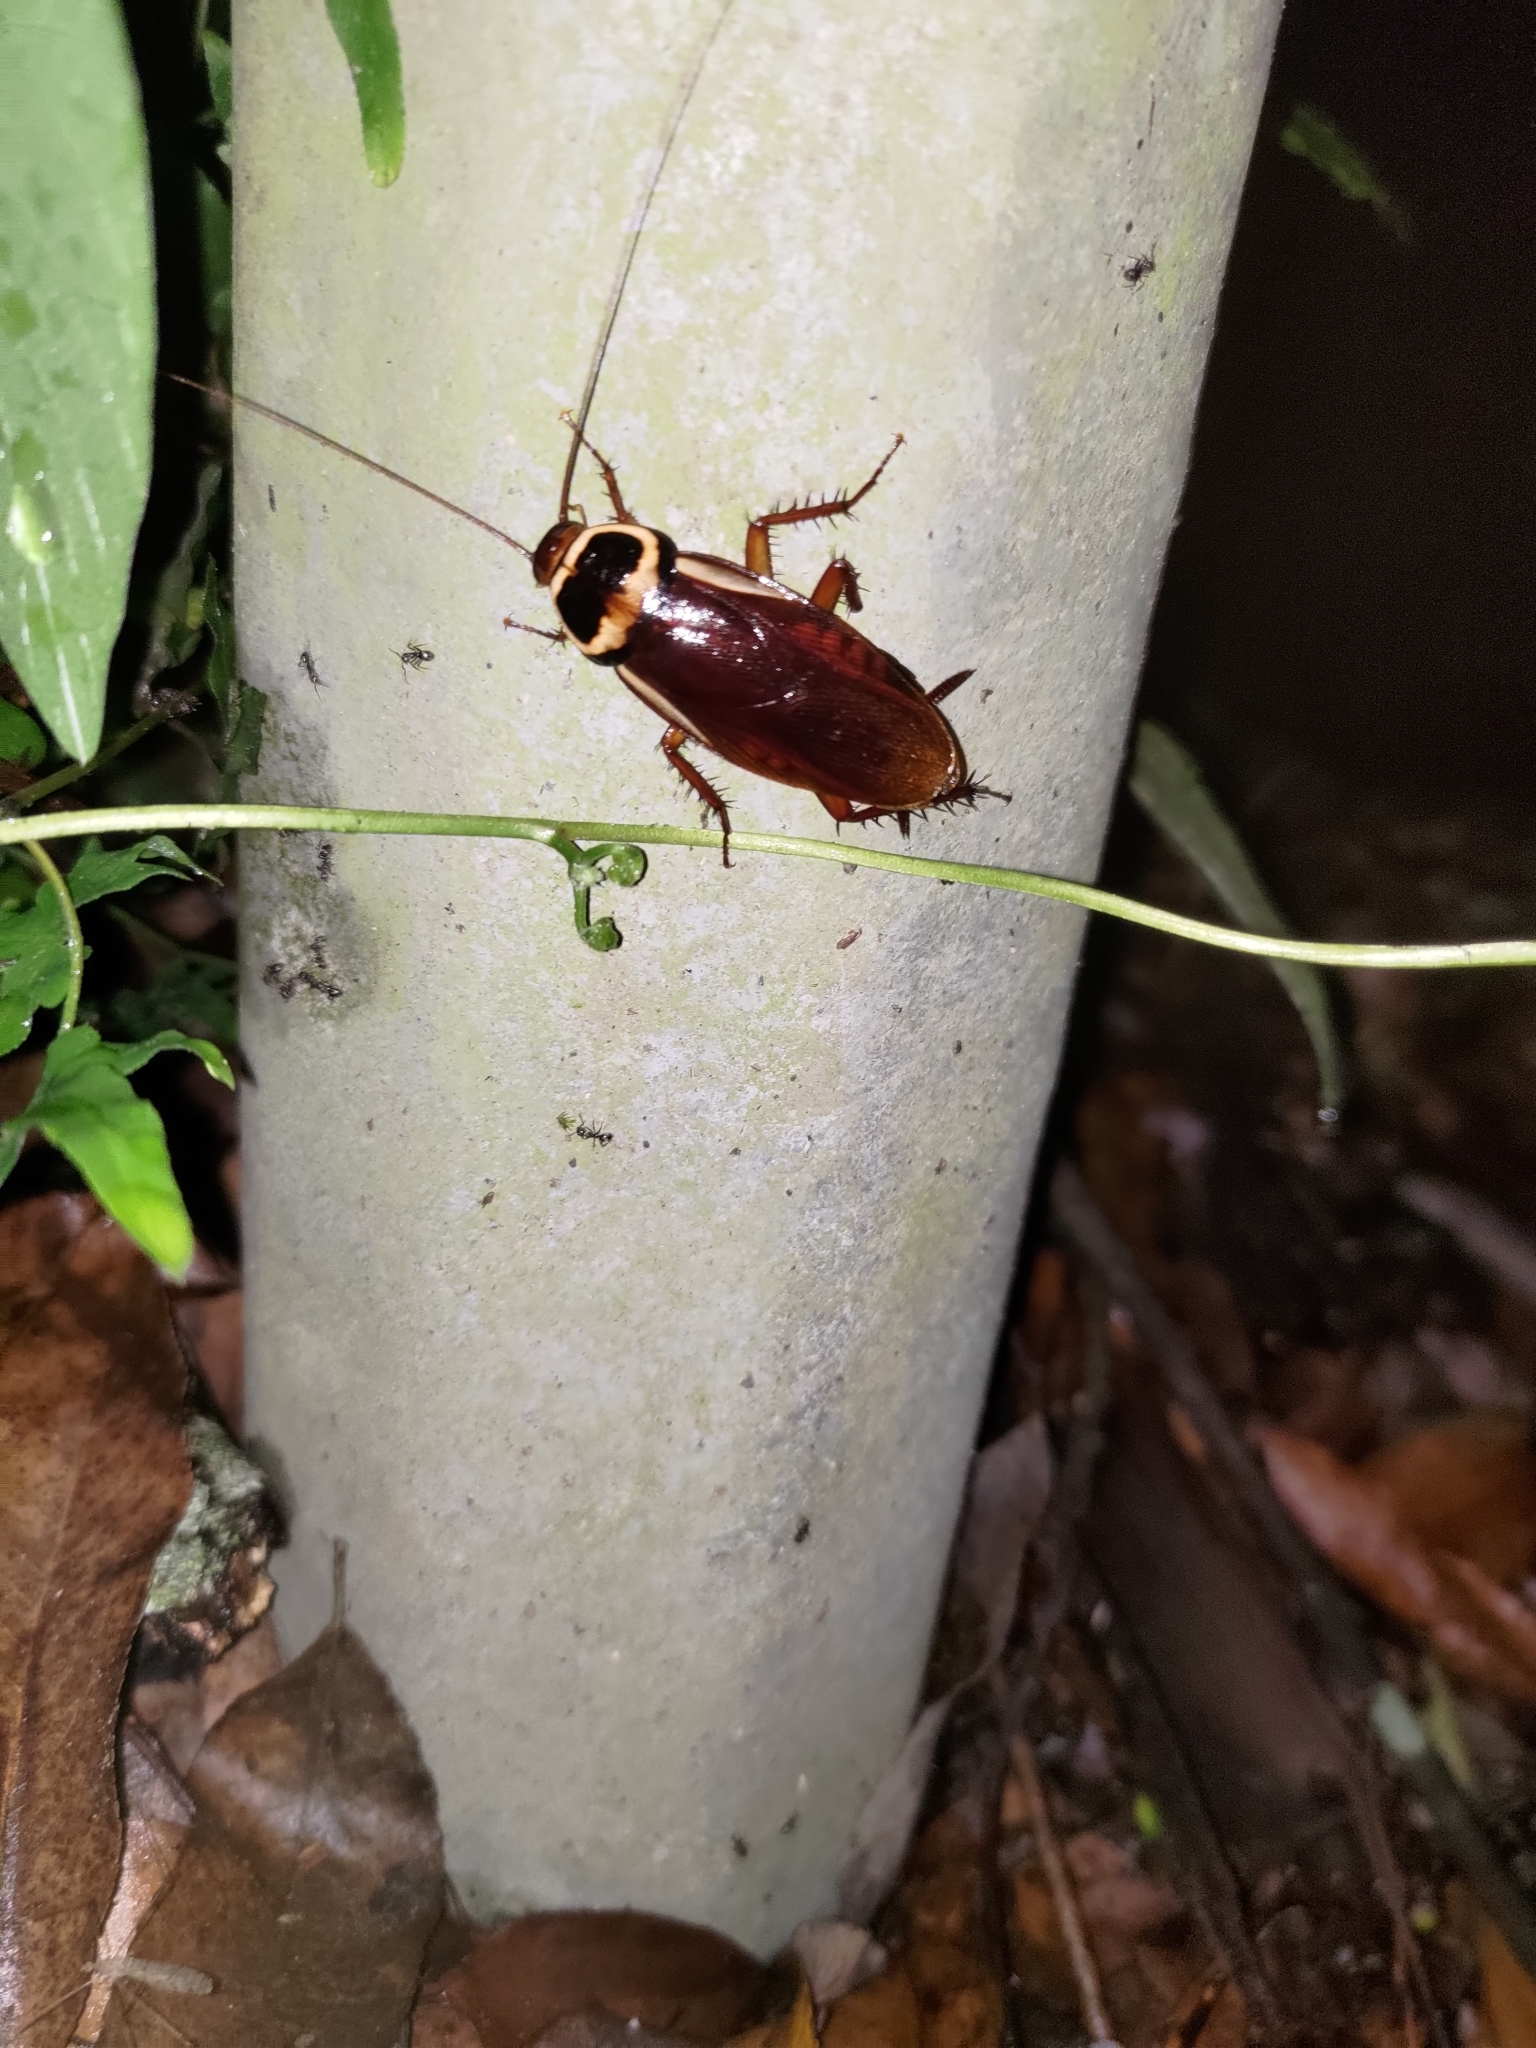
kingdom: Animalia
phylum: Arthropoda
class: Insecta
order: Blattodea
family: Blattidae
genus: Periplaneta
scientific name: Periplaneta australasiae
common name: Australian cockroach
